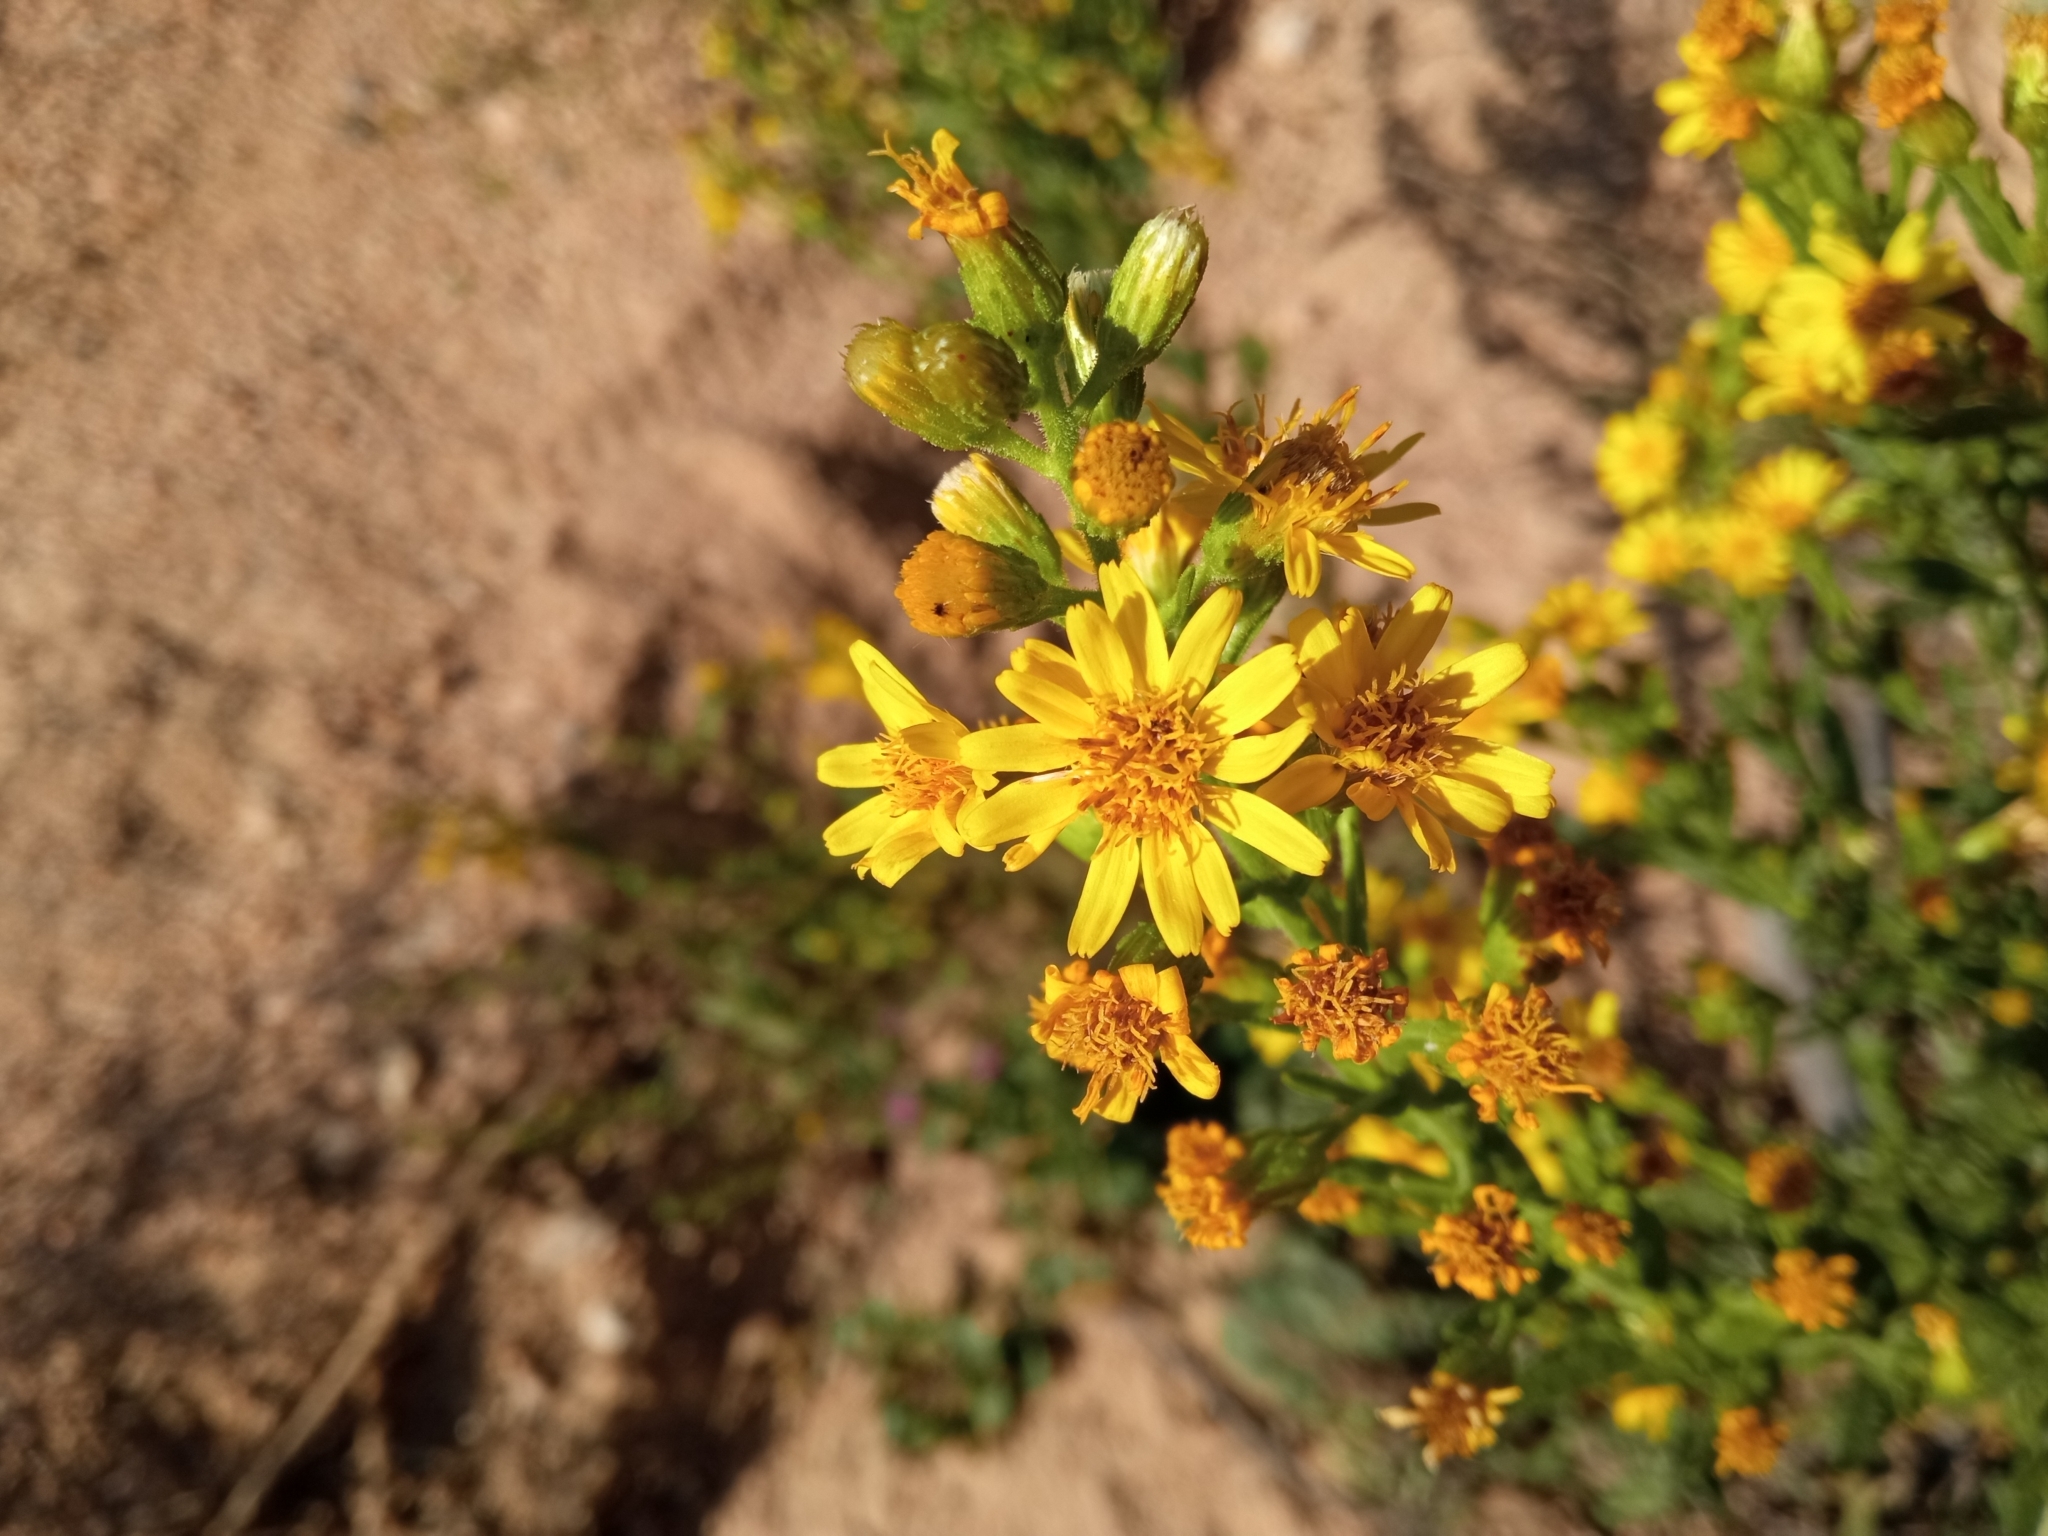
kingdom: Plantae
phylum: Tracheophyta
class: Magnoliopsida
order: Asterales
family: Asteraceae
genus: Dittrichia
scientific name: Dittrichia viscosa
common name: Woody fleabane
